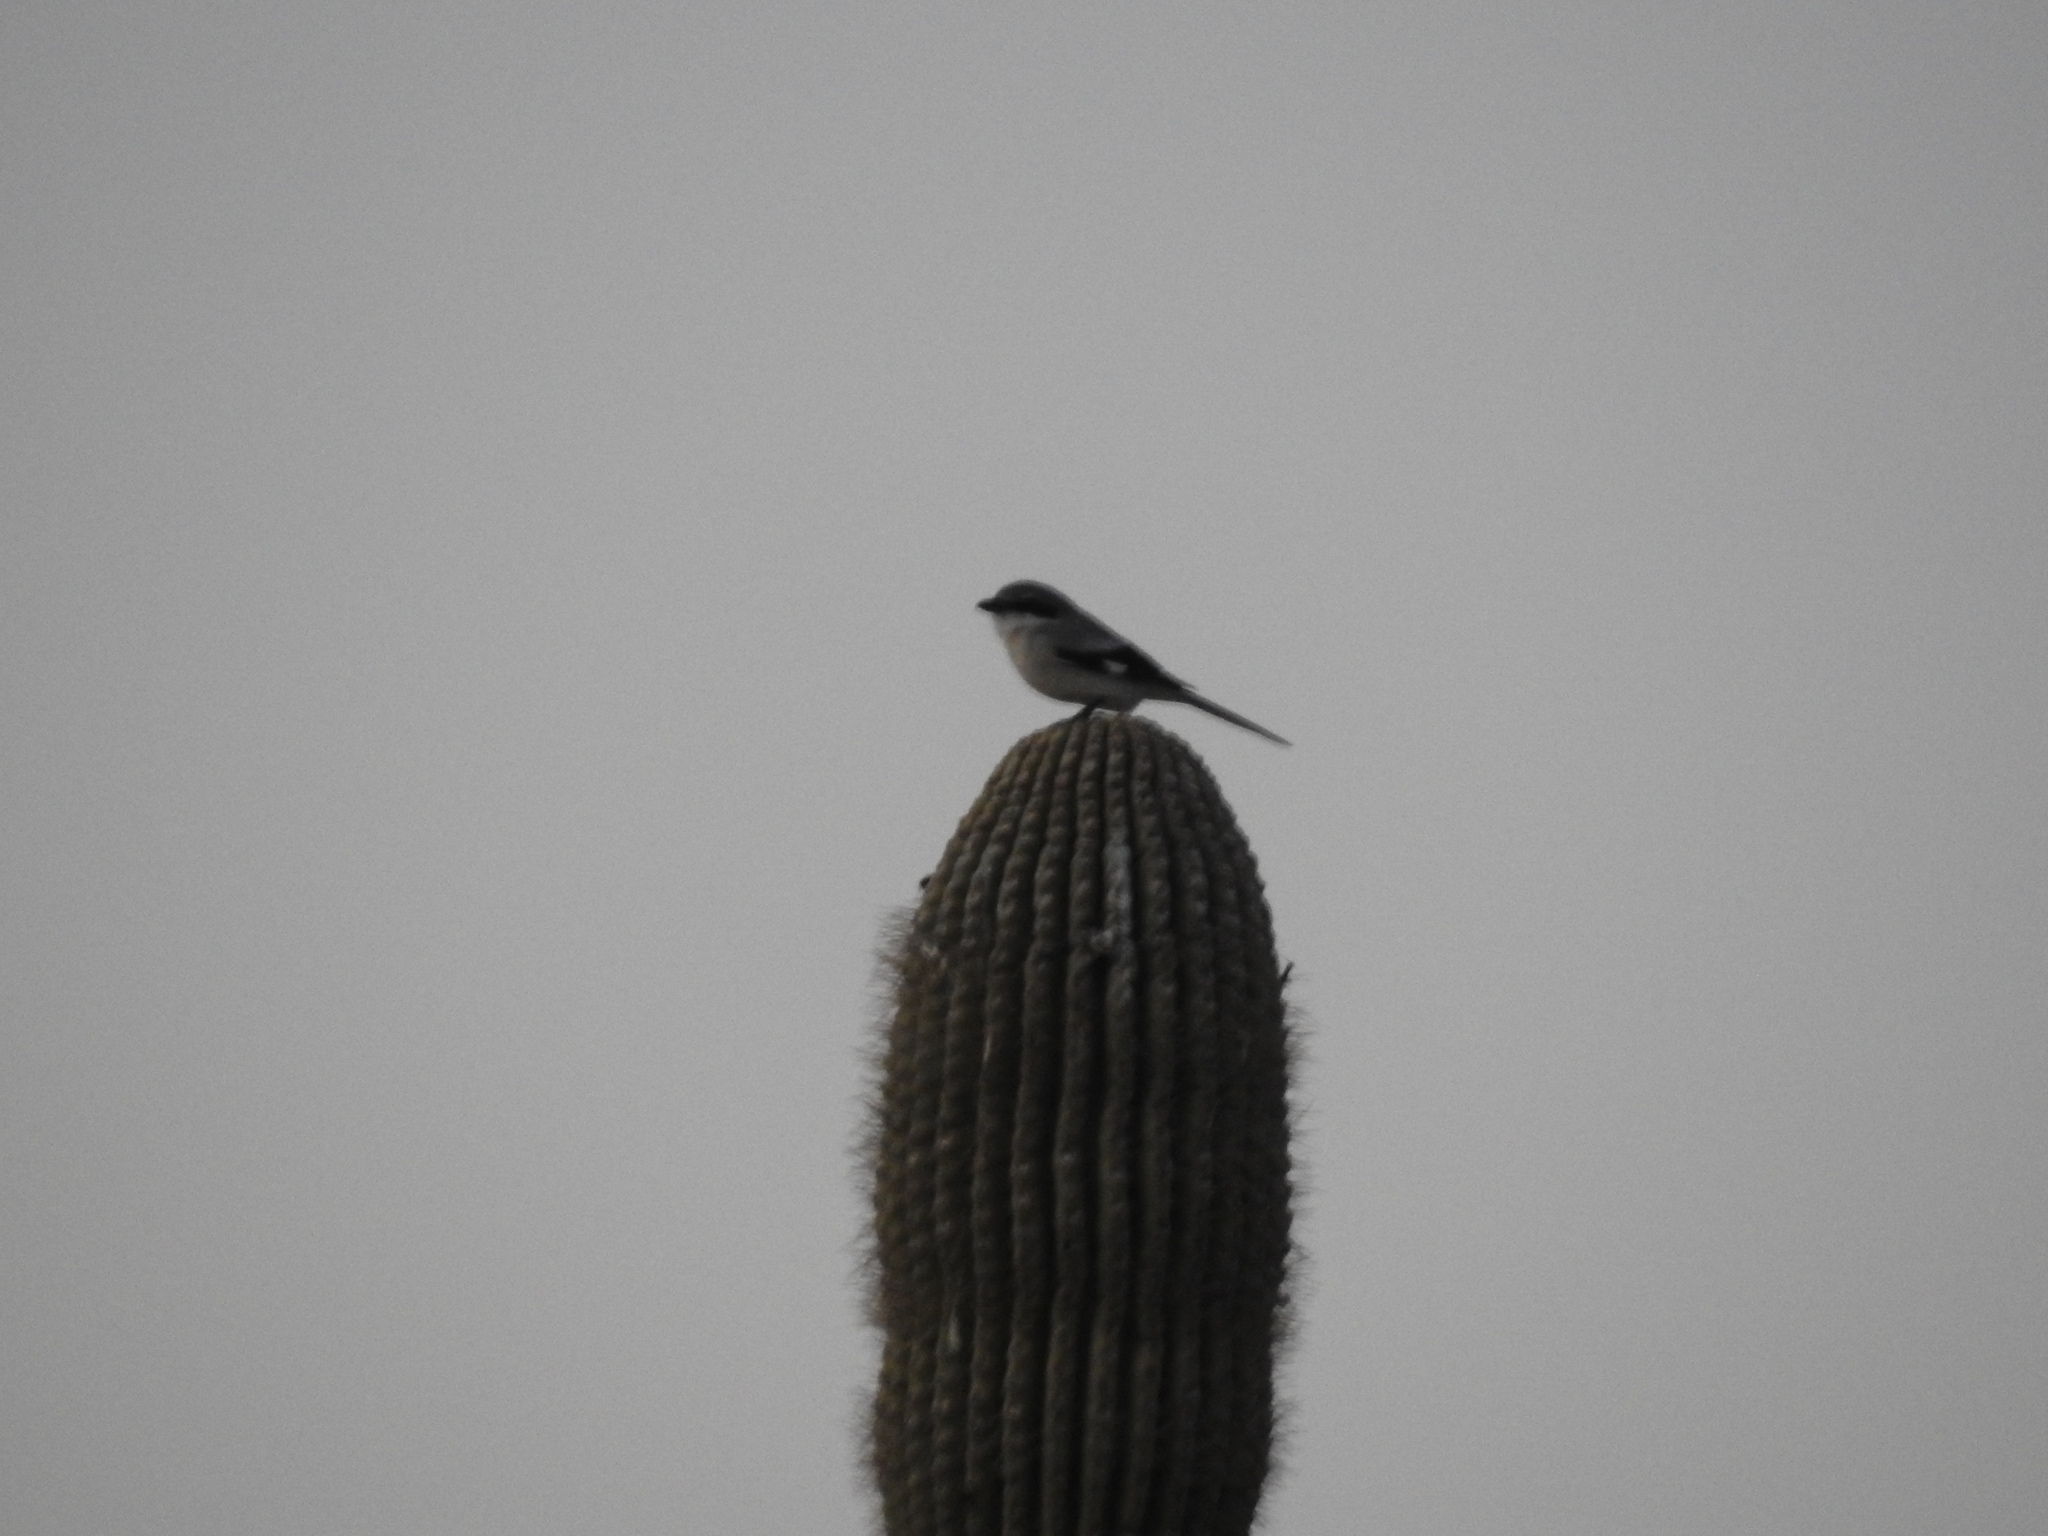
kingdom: Animalia
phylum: Chordata
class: Aves
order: Passeriformes
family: Laniidae
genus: Lanius
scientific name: Lanius ludovicianus
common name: Loggerhead shrike
